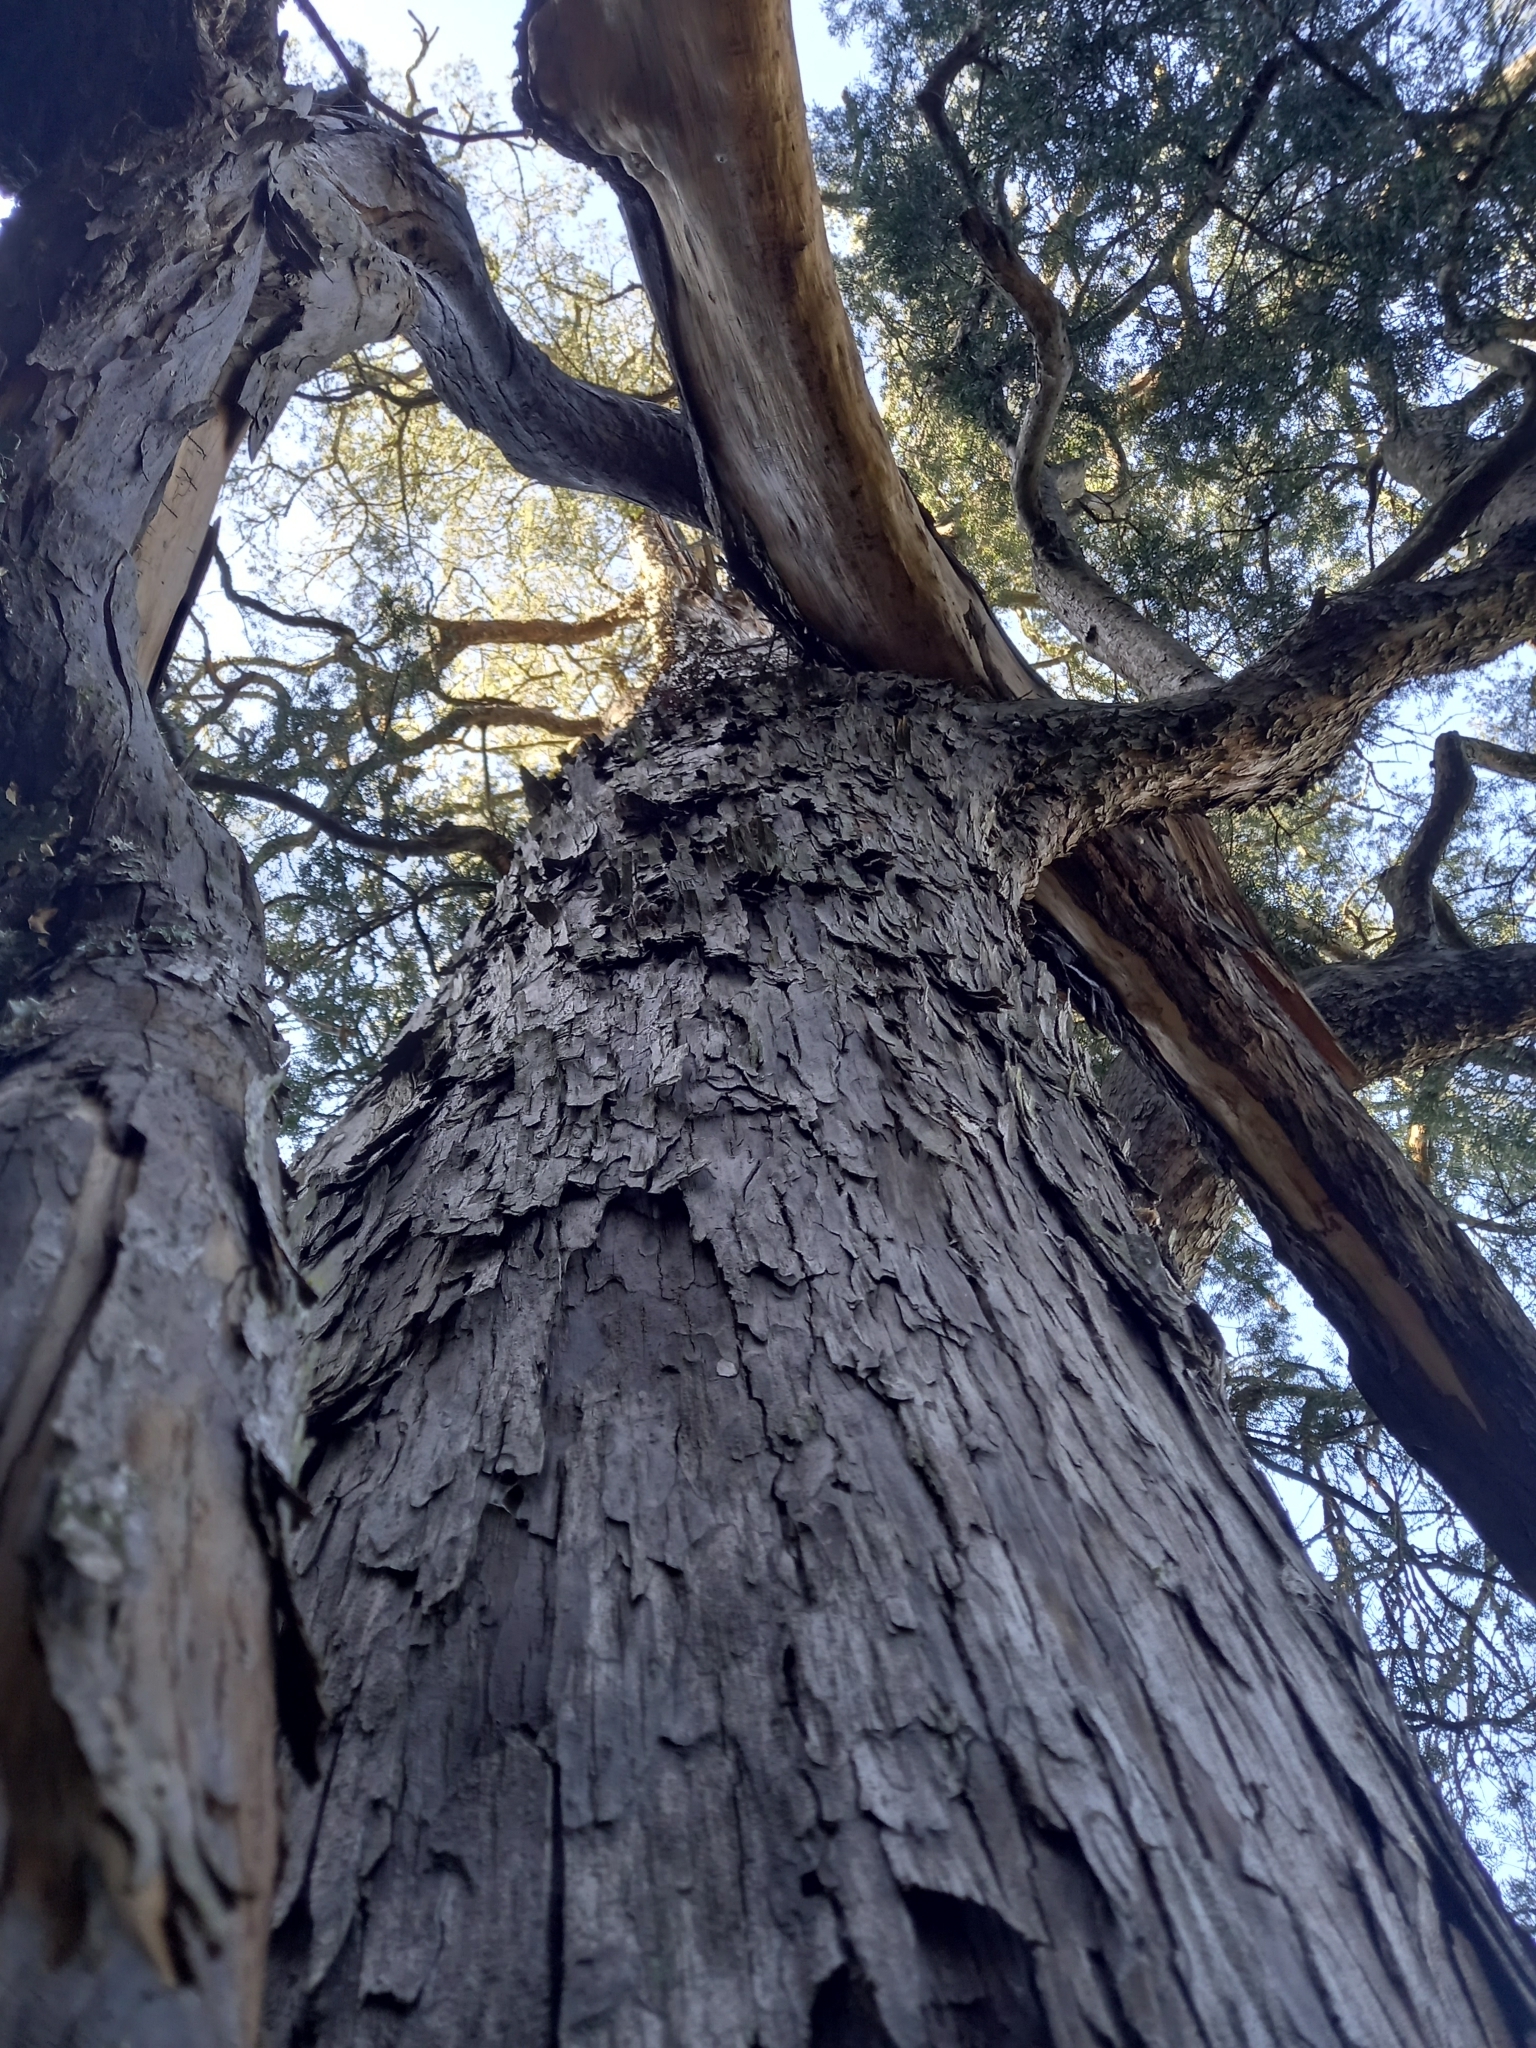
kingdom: Plantae
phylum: Tracheophyta
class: Pinopsida
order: Pinales
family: Podocarpaceae
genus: Afrocarpus
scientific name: Afrocarpus falcatus
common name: Bastard yellowwood
